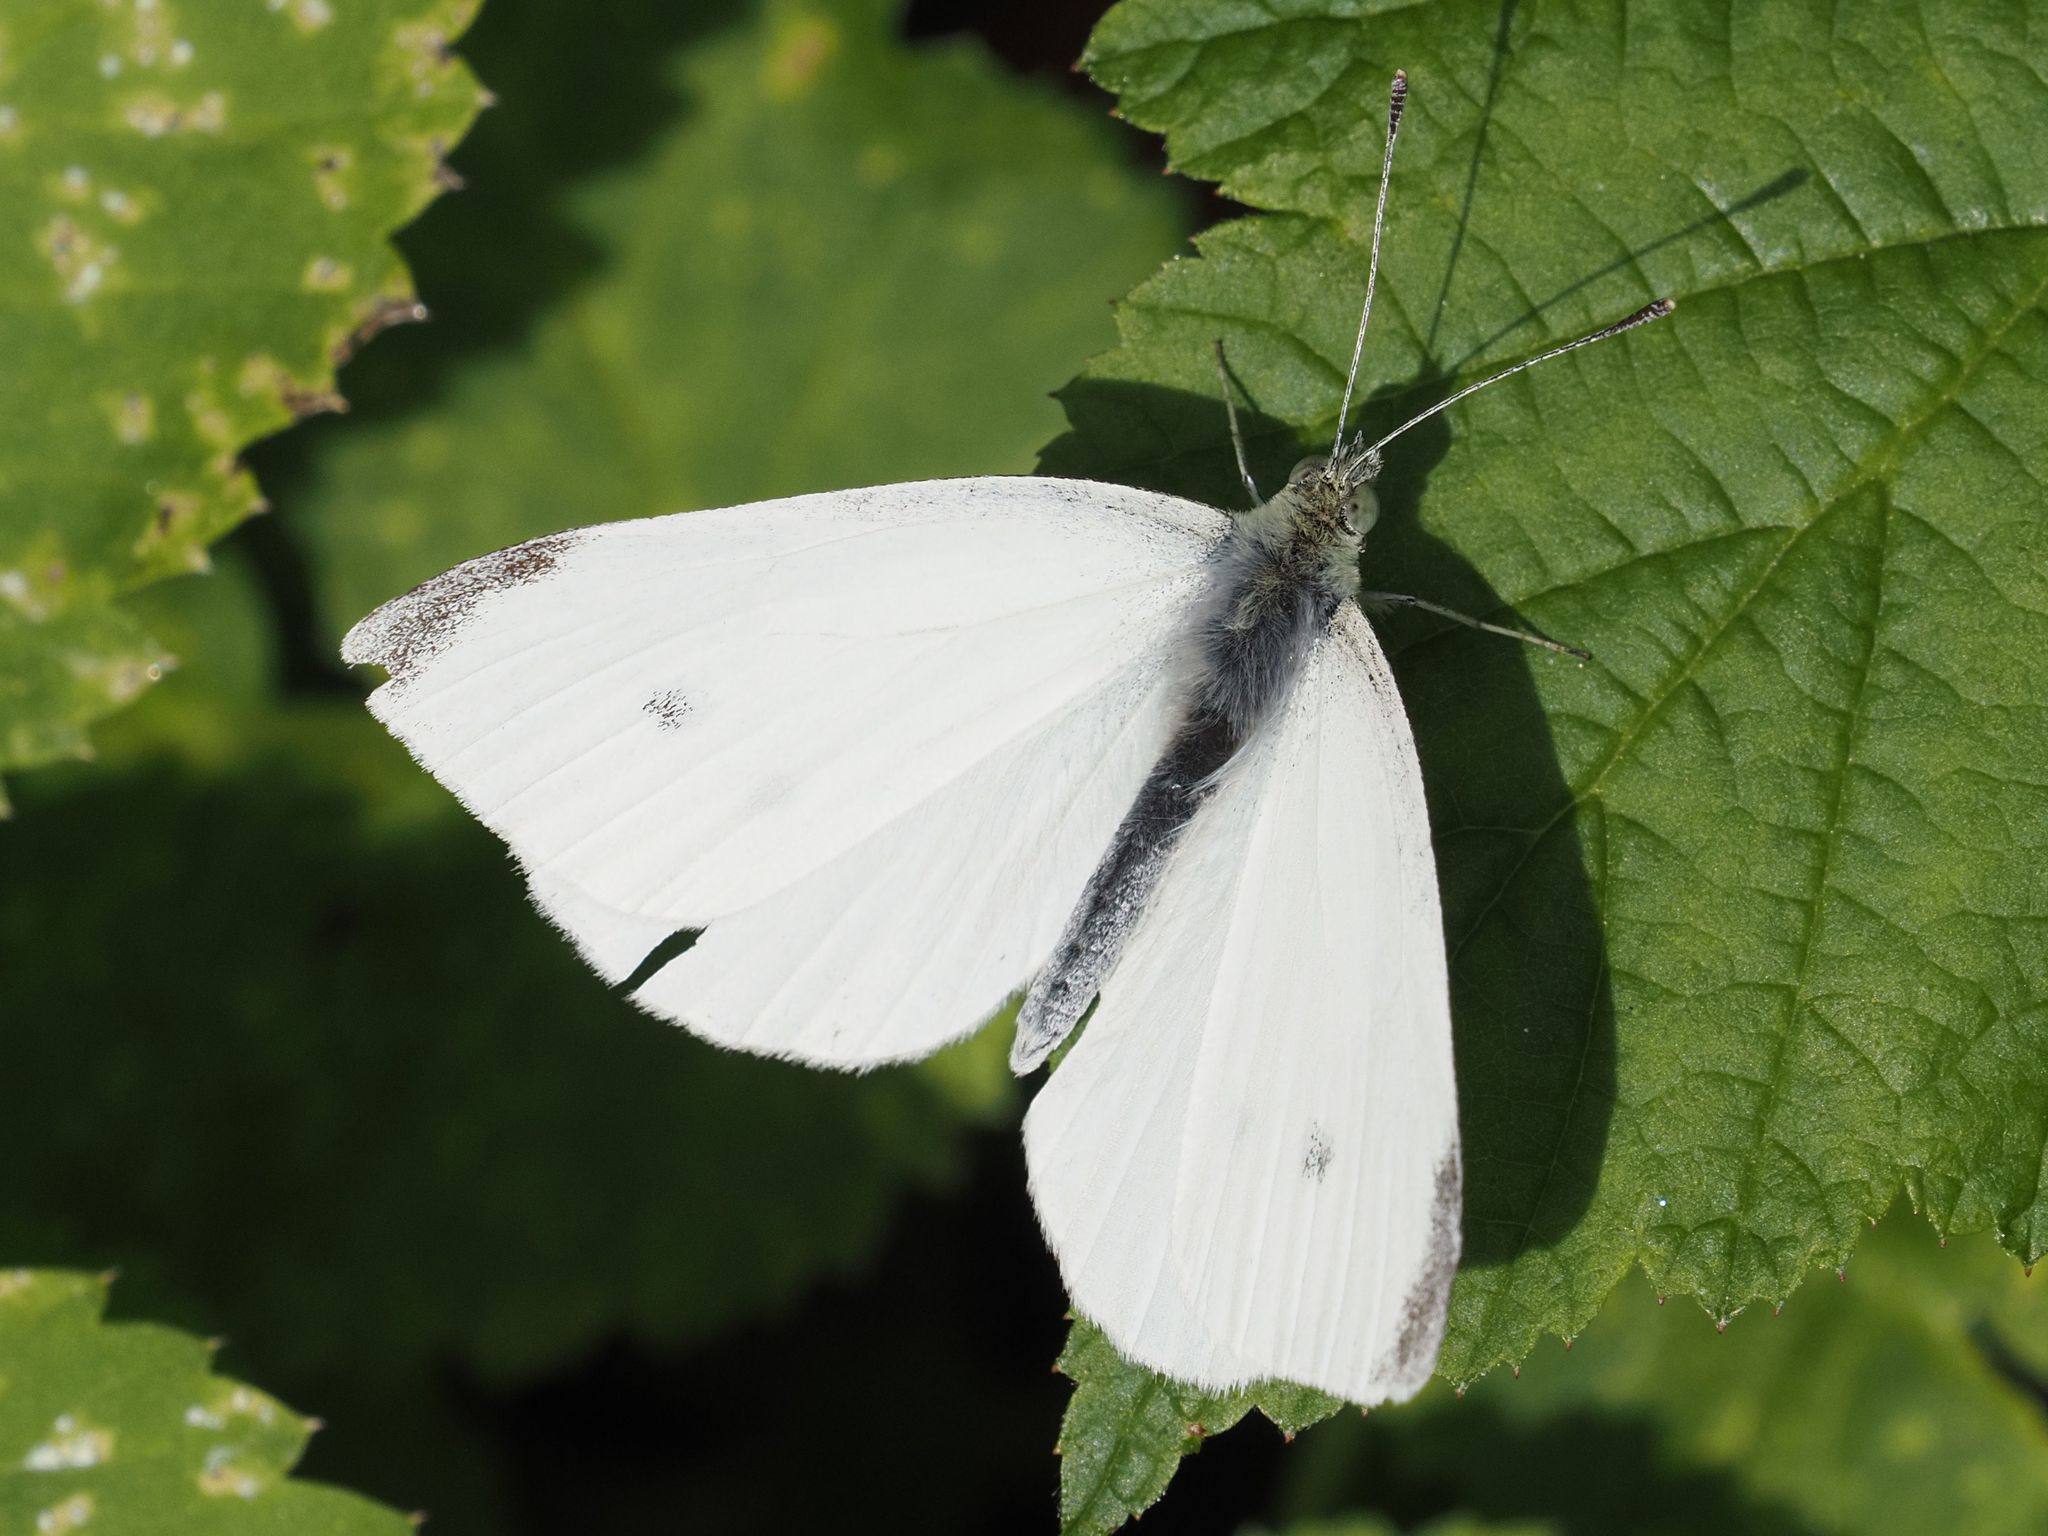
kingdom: Animalia
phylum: Arthropoda
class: Insecta
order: Lepidoptera
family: Pieridae
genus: Pieris
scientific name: Pieris rapae
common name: Small white
